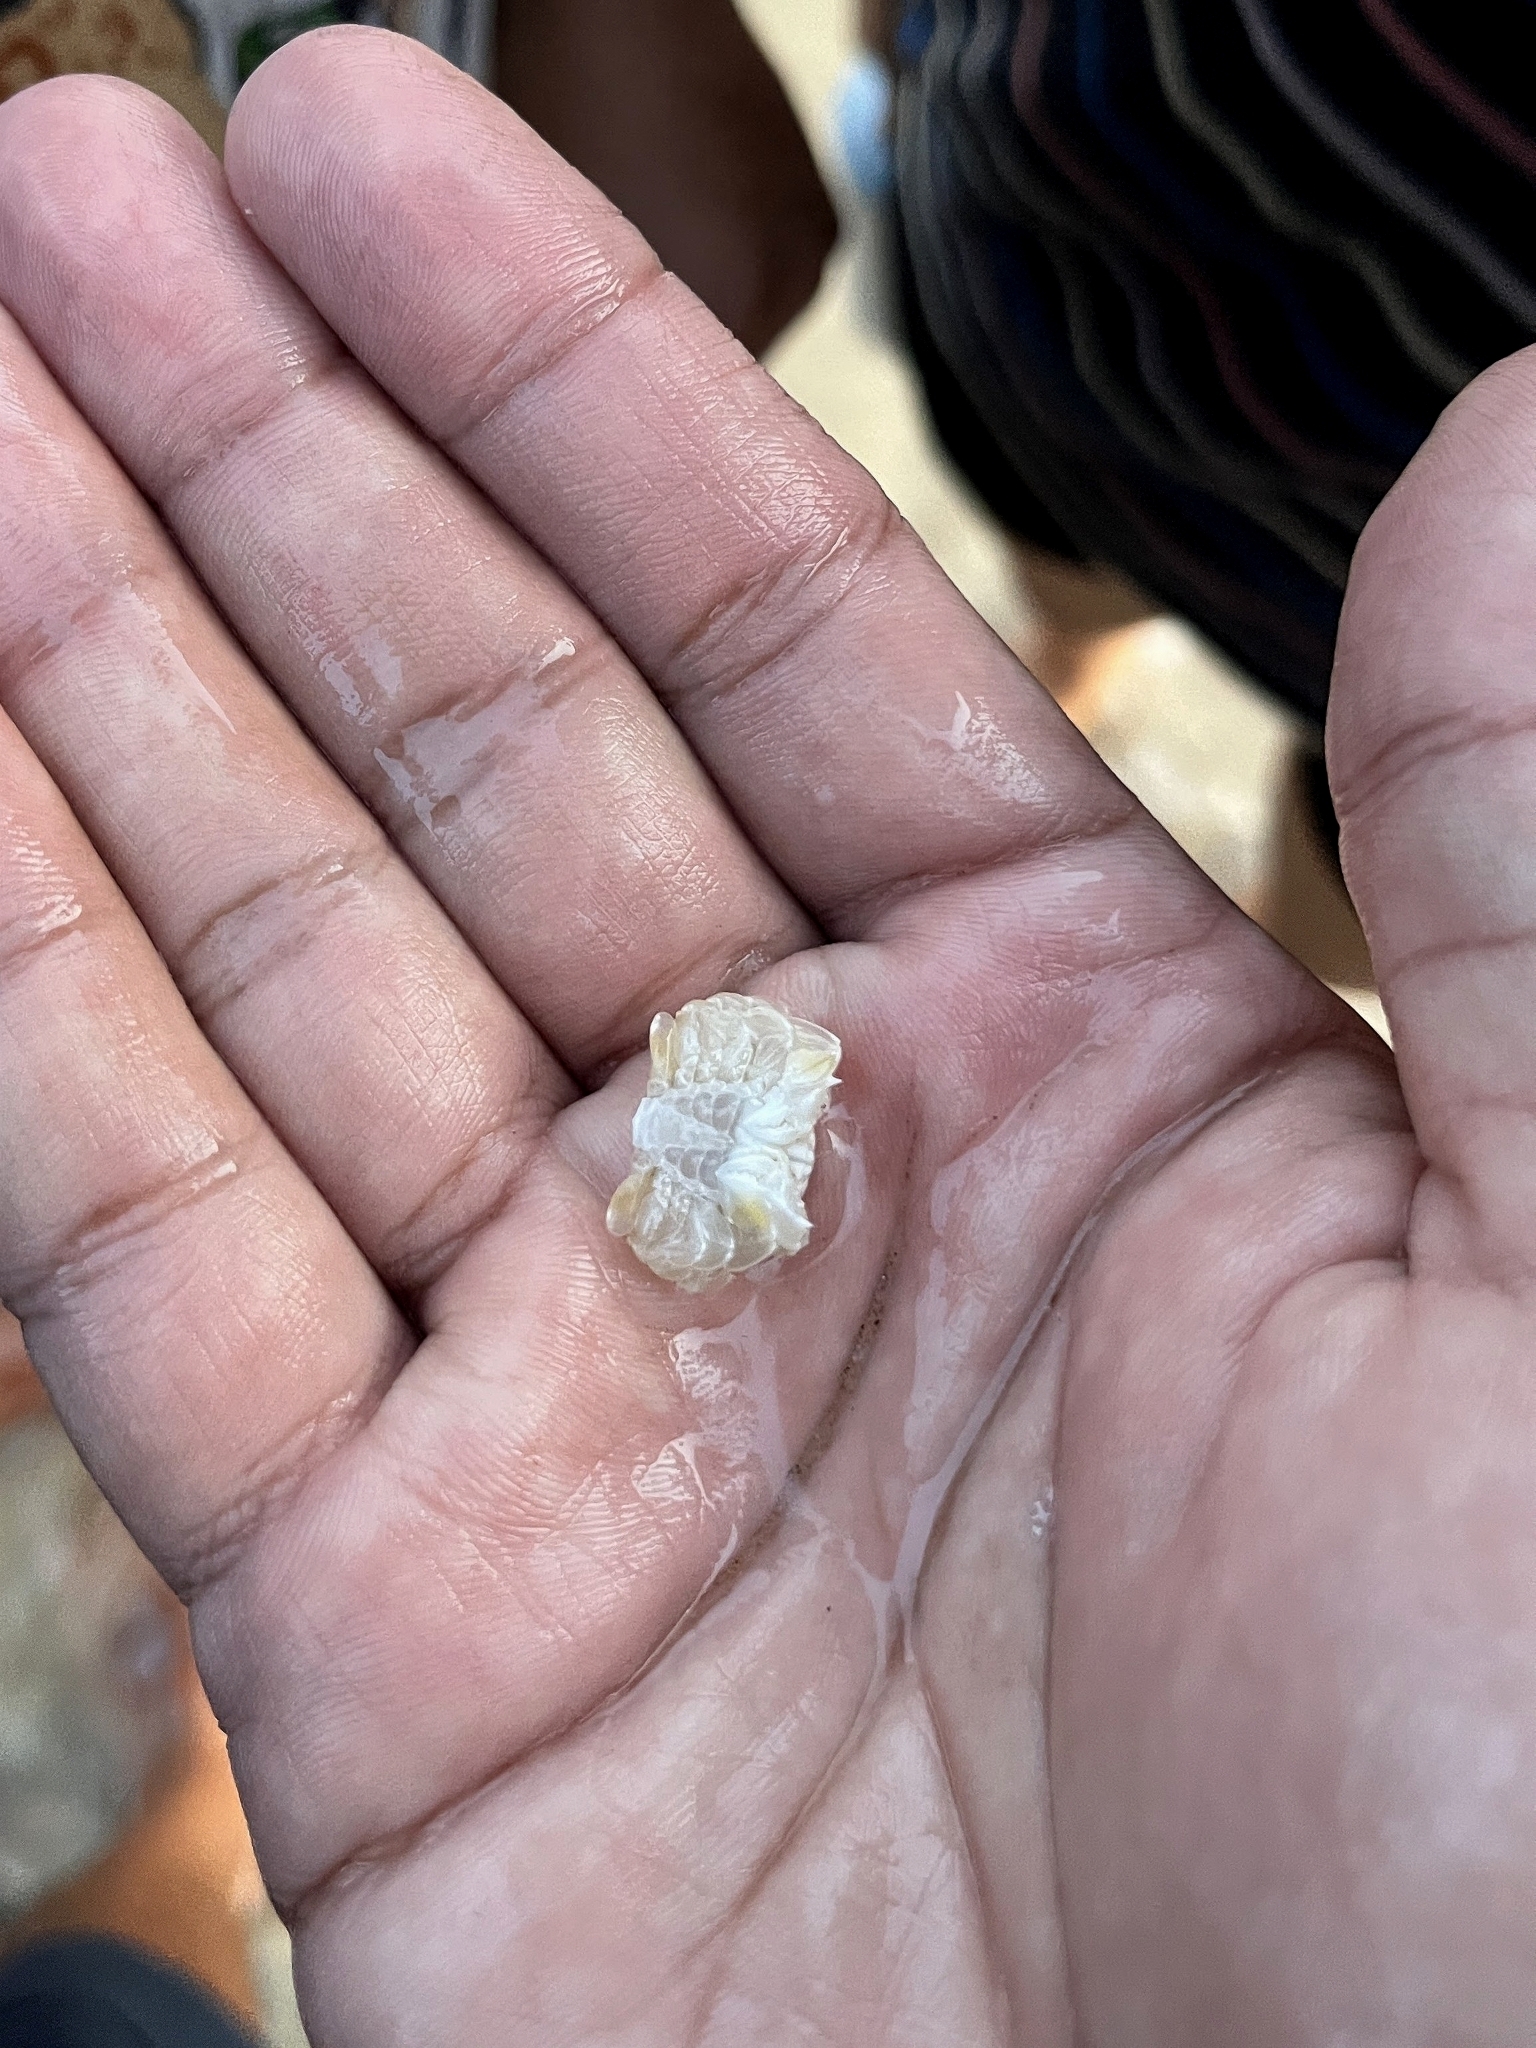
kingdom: Animalia
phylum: Arthropoda
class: Malacostraca
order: Decapoda
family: Matutidae
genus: Matuta
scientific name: Matuta victor
